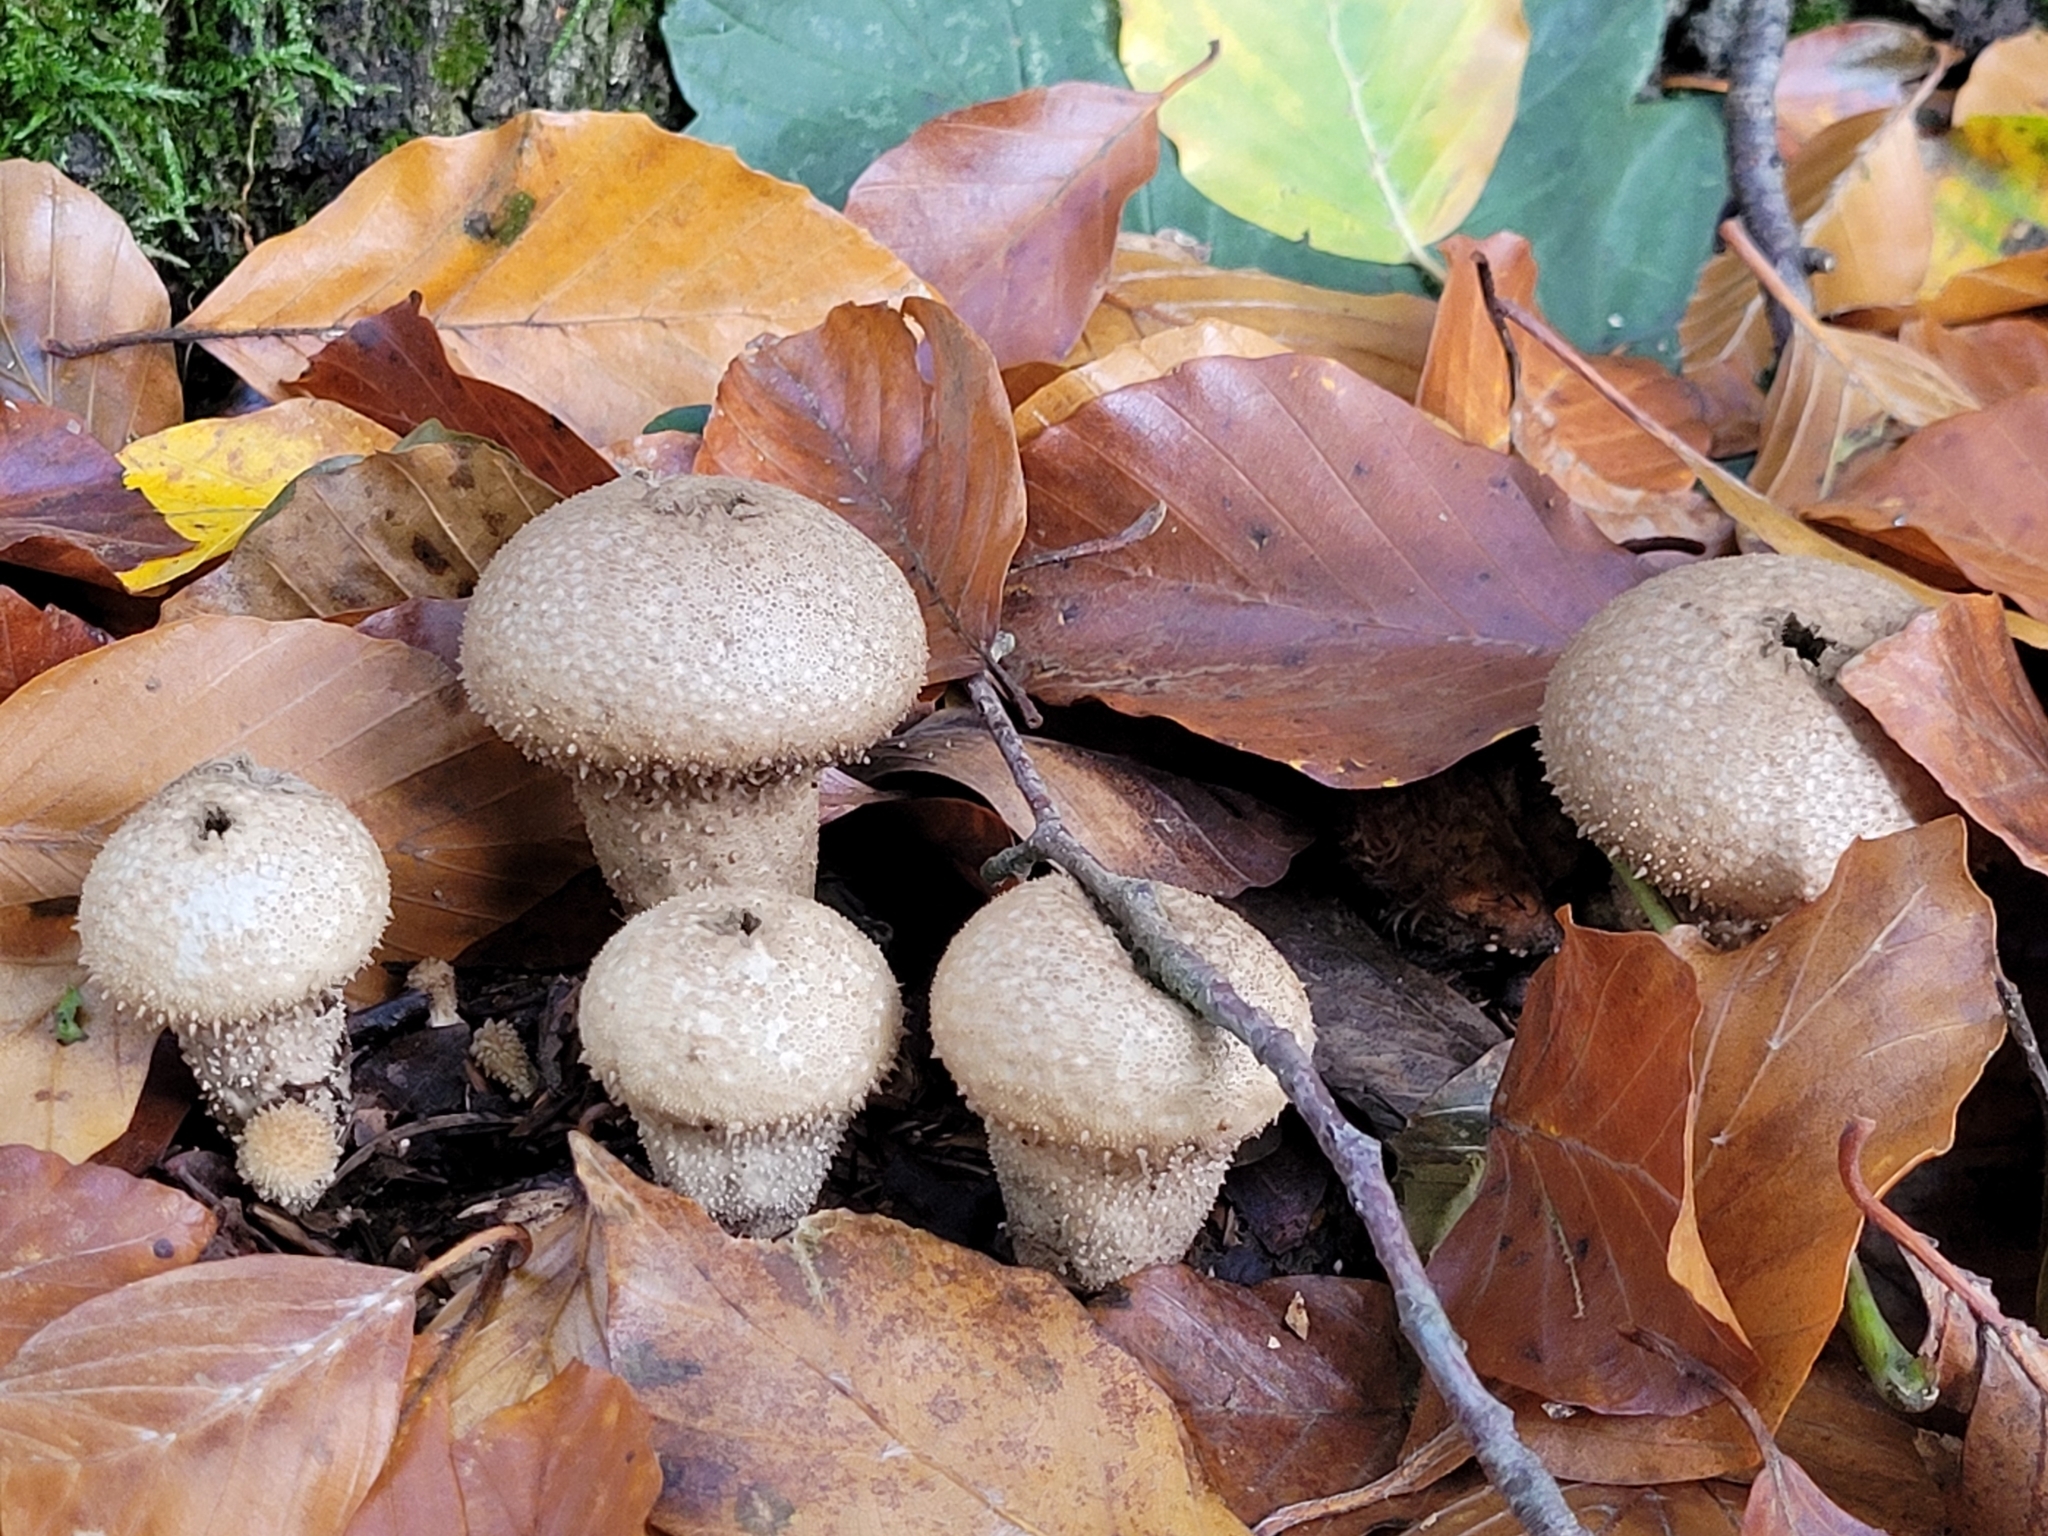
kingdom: Fungi
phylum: Basidiomycota
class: Agaricomycetes
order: Agaricales
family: Lycoperdaceae
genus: Lycoperdon
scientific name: Lycoperdon perlatum
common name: Common puffball
